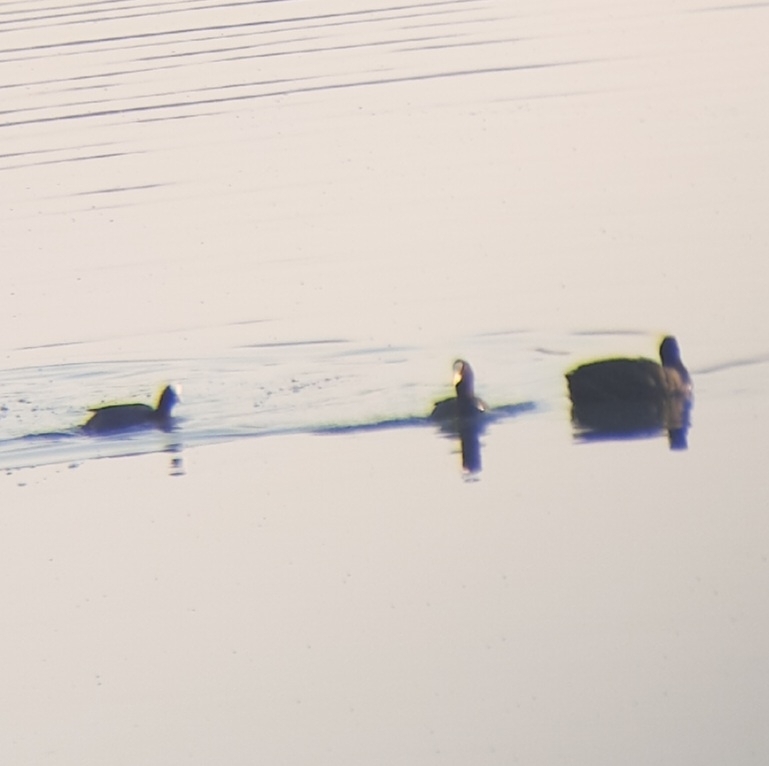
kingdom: Animalia
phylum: Chordata
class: Aves
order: Gruiformes
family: Rallidae
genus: Fulica
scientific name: Fulica atra
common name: Eurasian coot
